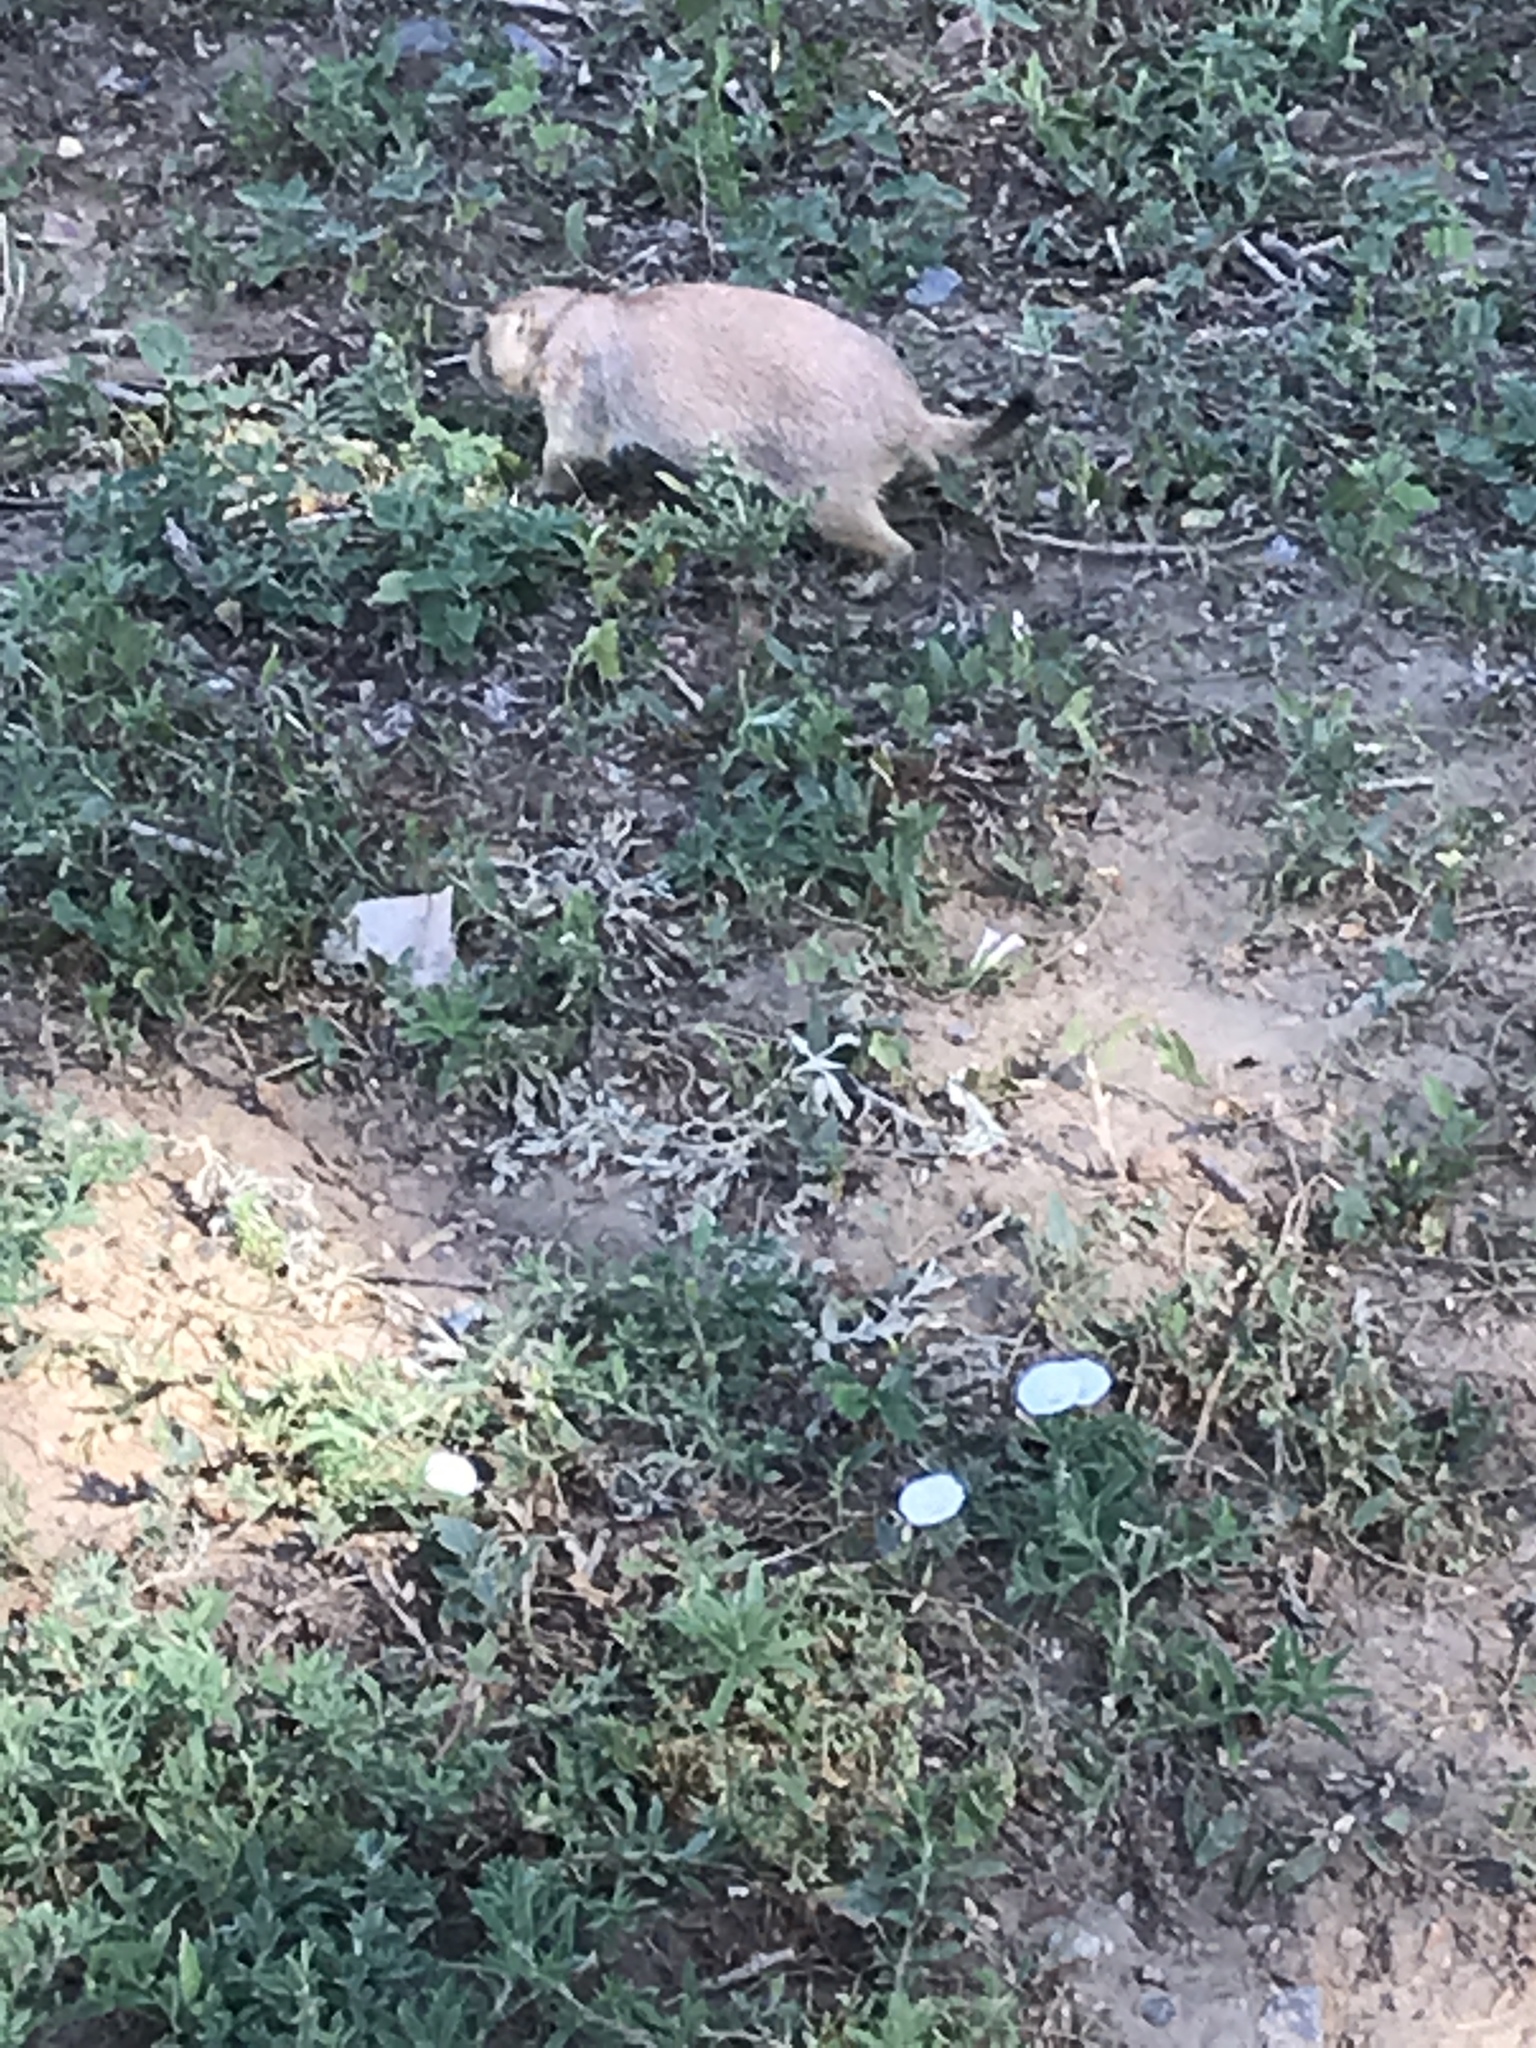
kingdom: Animalia
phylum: Chordata
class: Mammalia
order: Rodentia
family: Sciuridae
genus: Cynomys
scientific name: Cynomys ludovicianus
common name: Black-tailed prairie dog
